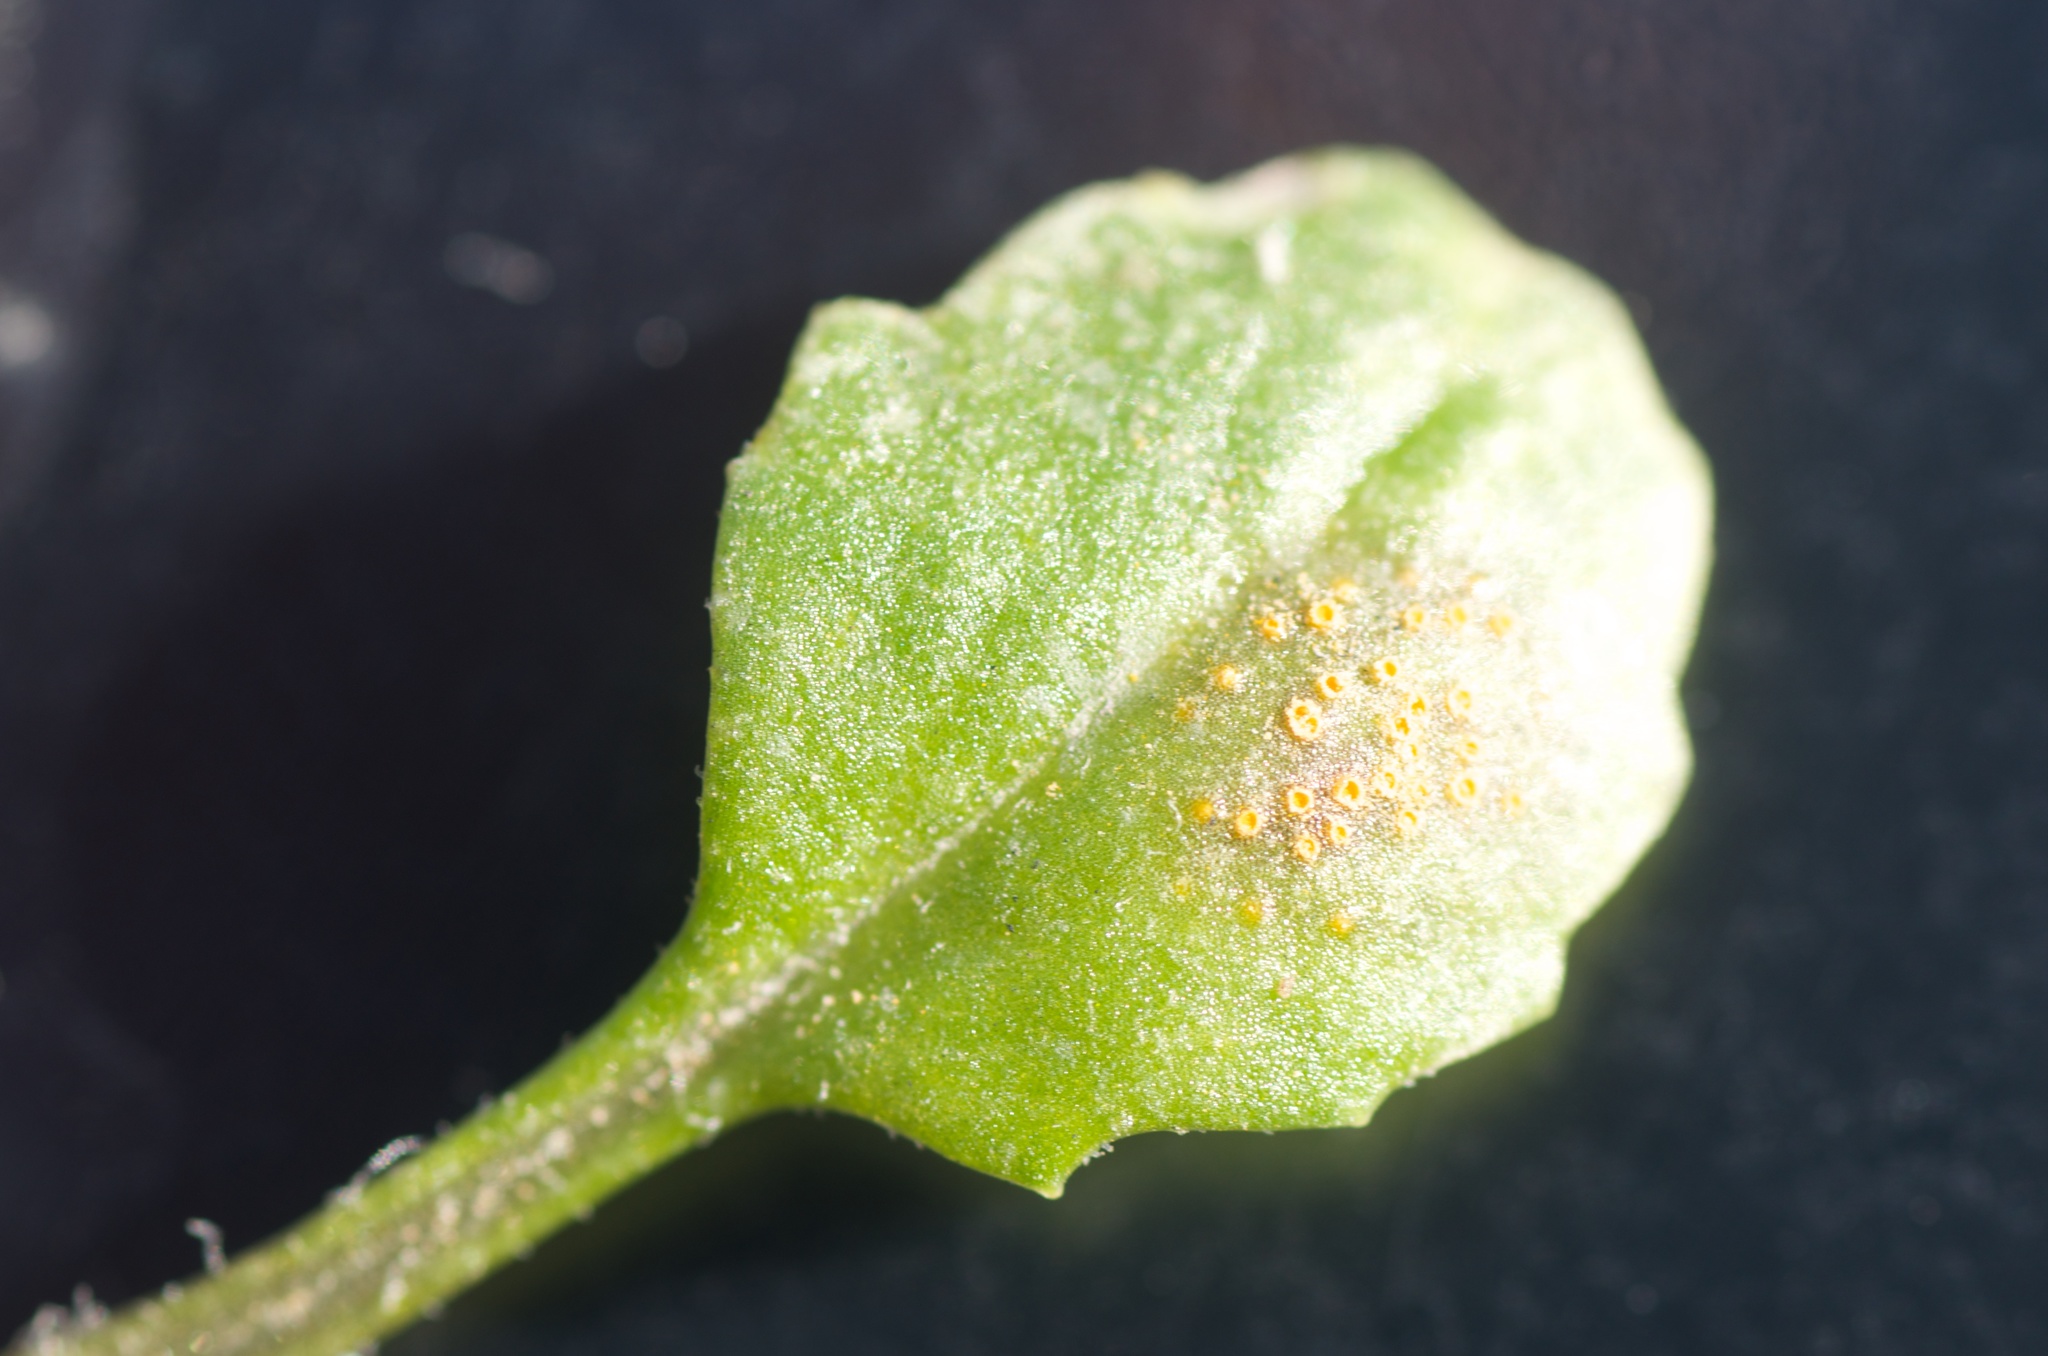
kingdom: Fungi
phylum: Basidiomycota
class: Pucciniomycetes
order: Pucciniales
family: Pucciniaceae
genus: Puccinia
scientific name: Puccinia lagenophorae
